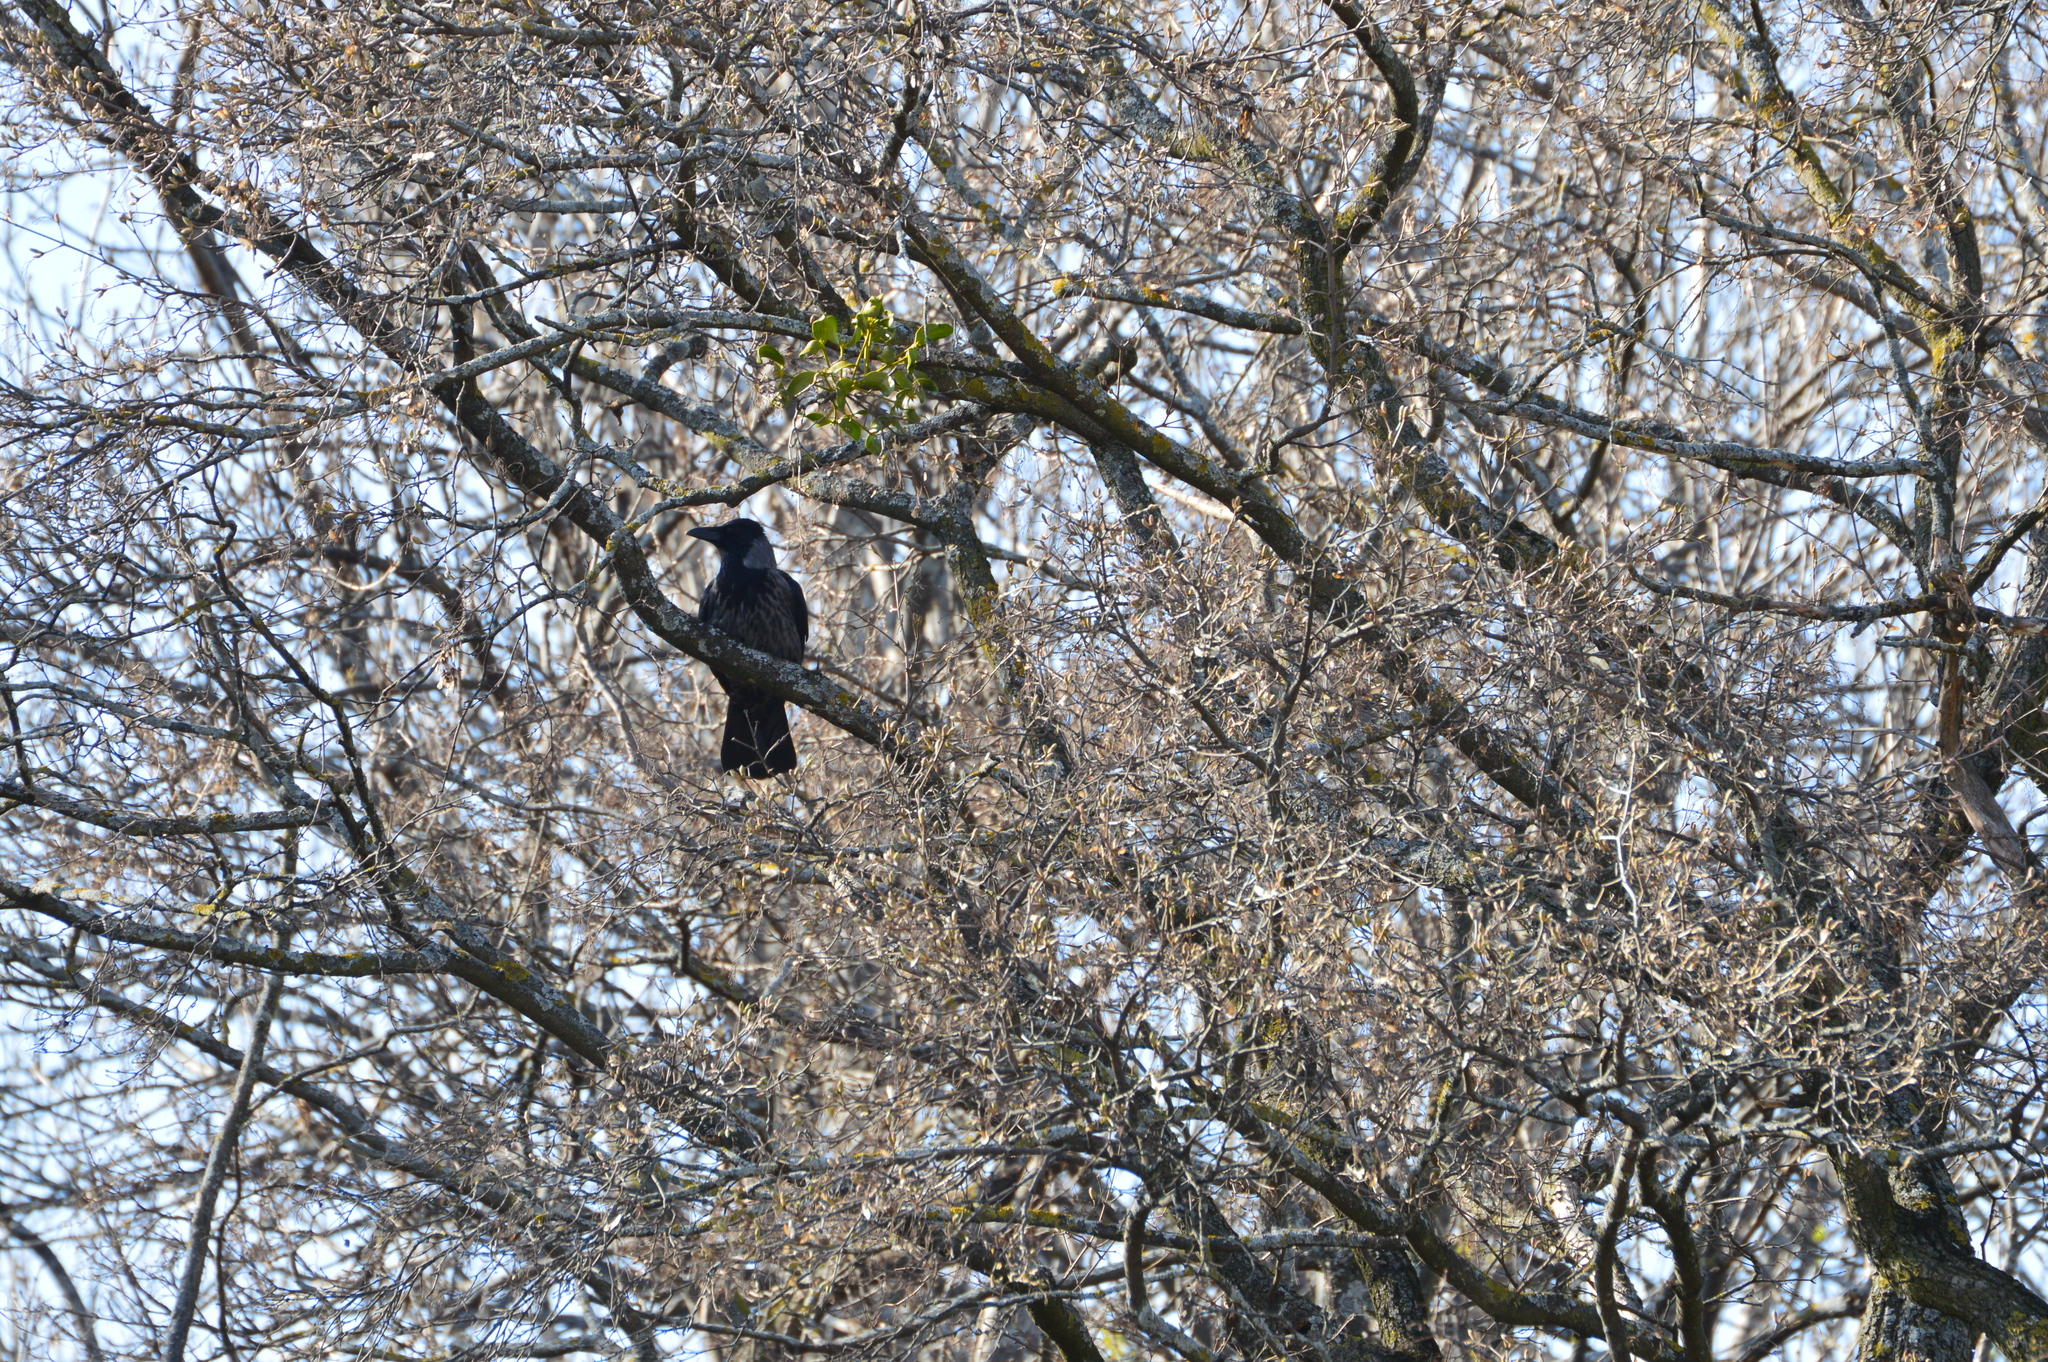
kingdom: Animalia
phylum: Chordata
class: Aves
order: Passeriformes
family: Corvidae
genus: Corvus
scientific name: Corvus
